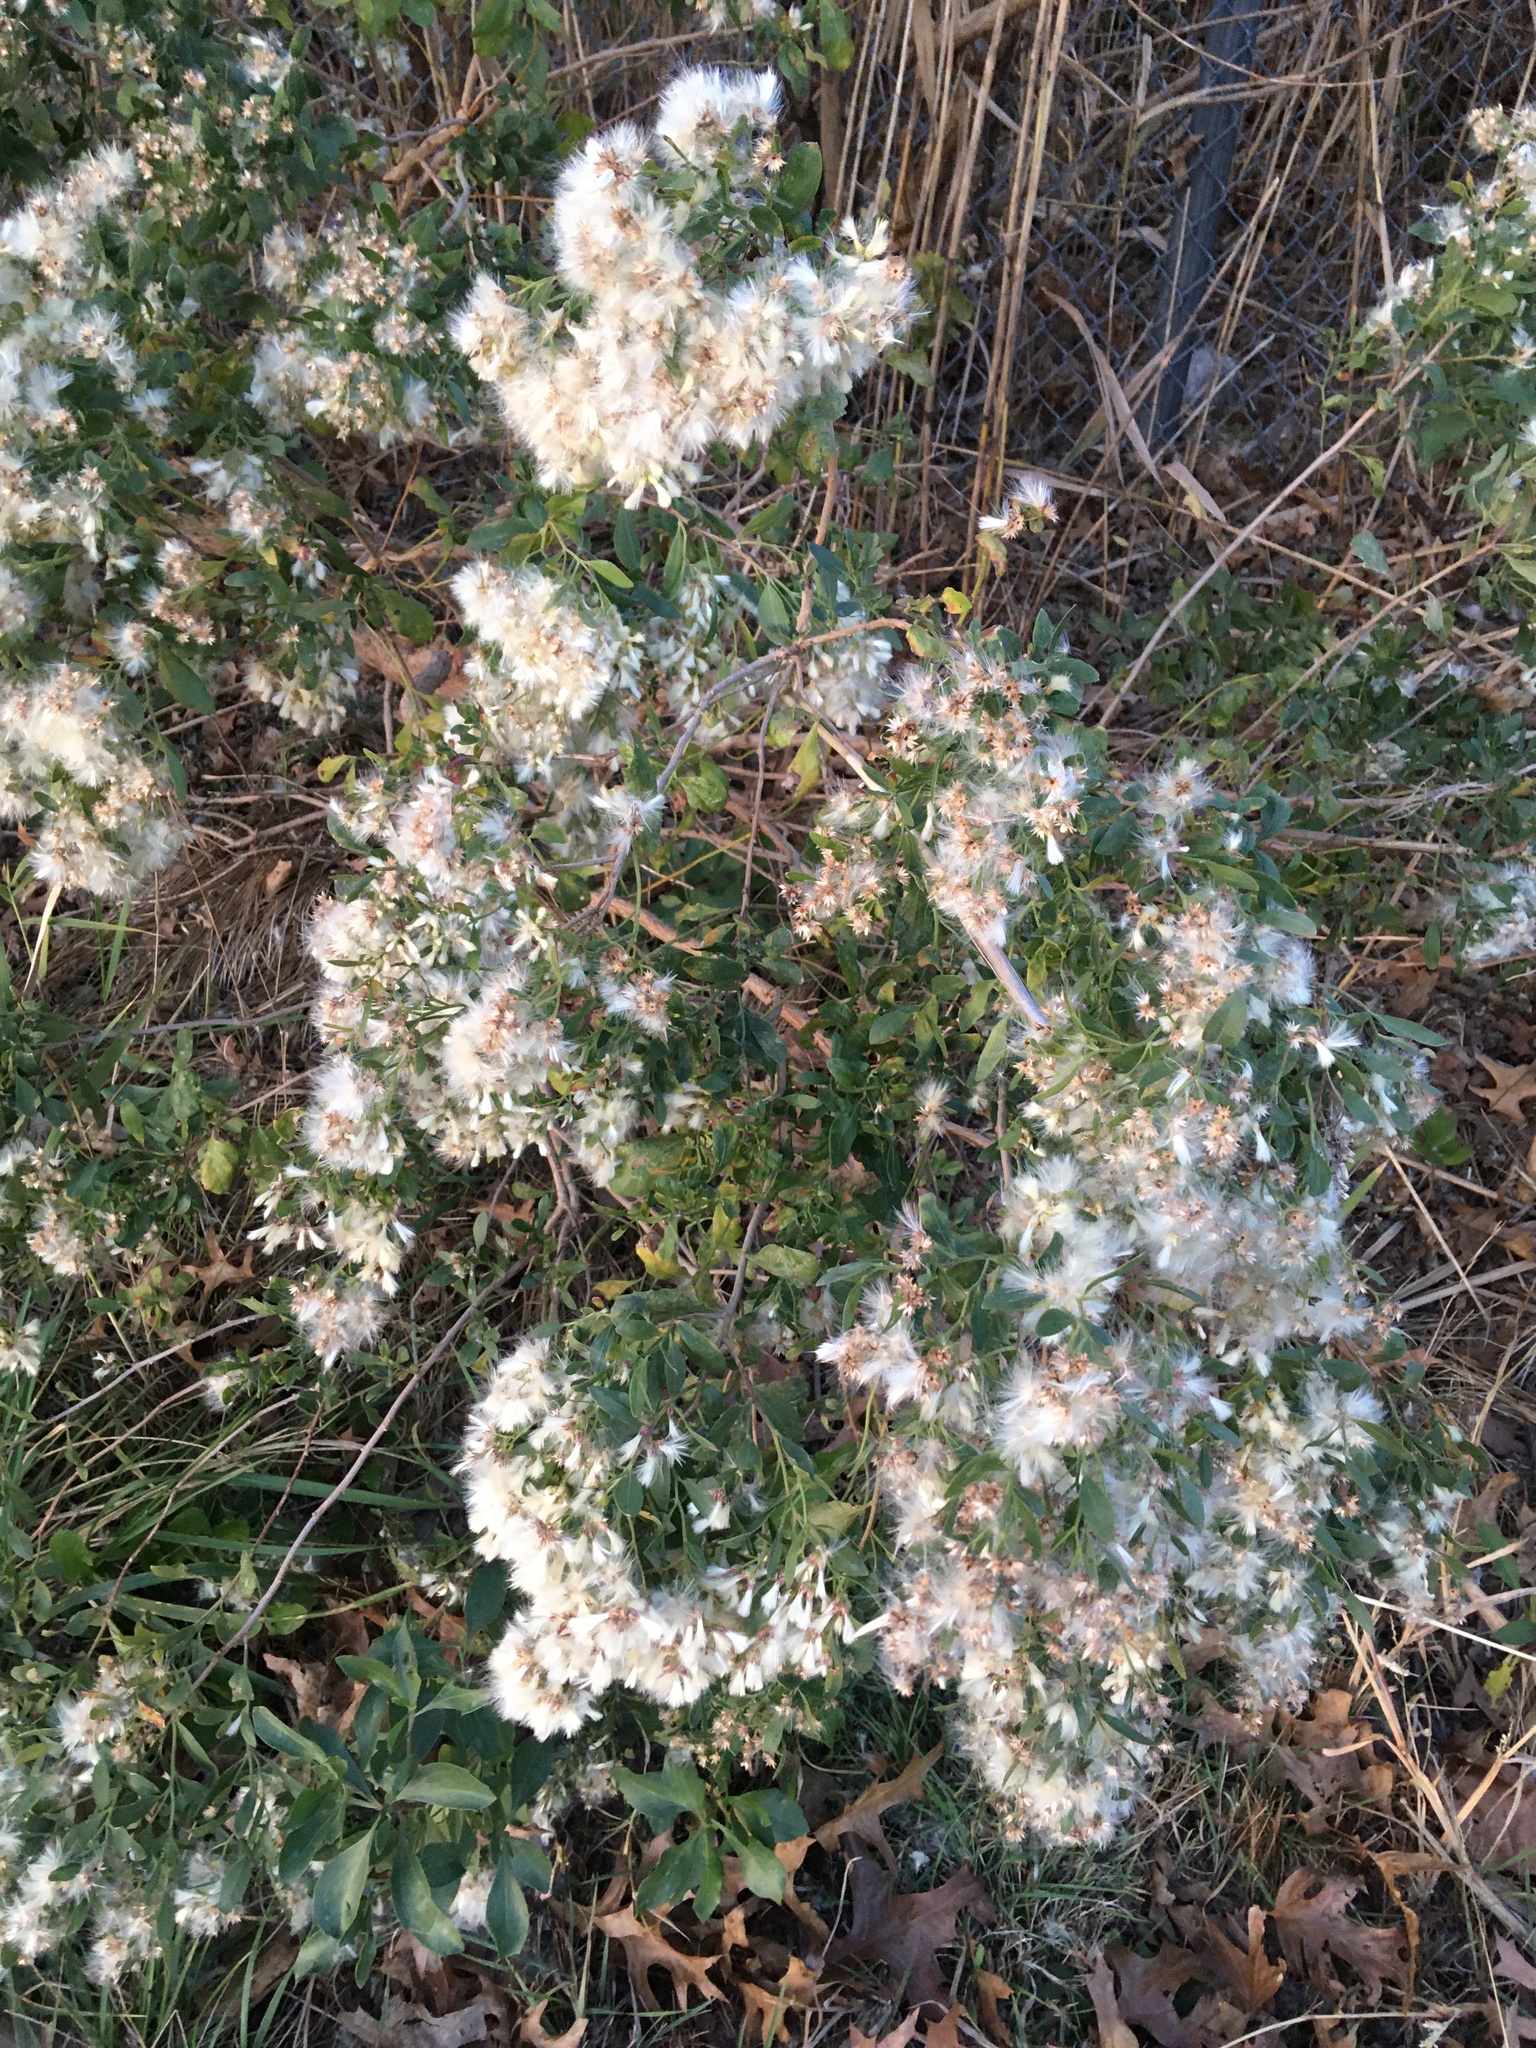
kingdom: Plantae
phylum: Tracheophyta
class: Magnoliopsida
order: Asterales
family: Asteraceae
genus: Baccharis
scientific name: Baccharis halimifolia
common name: Eastern baccharis
